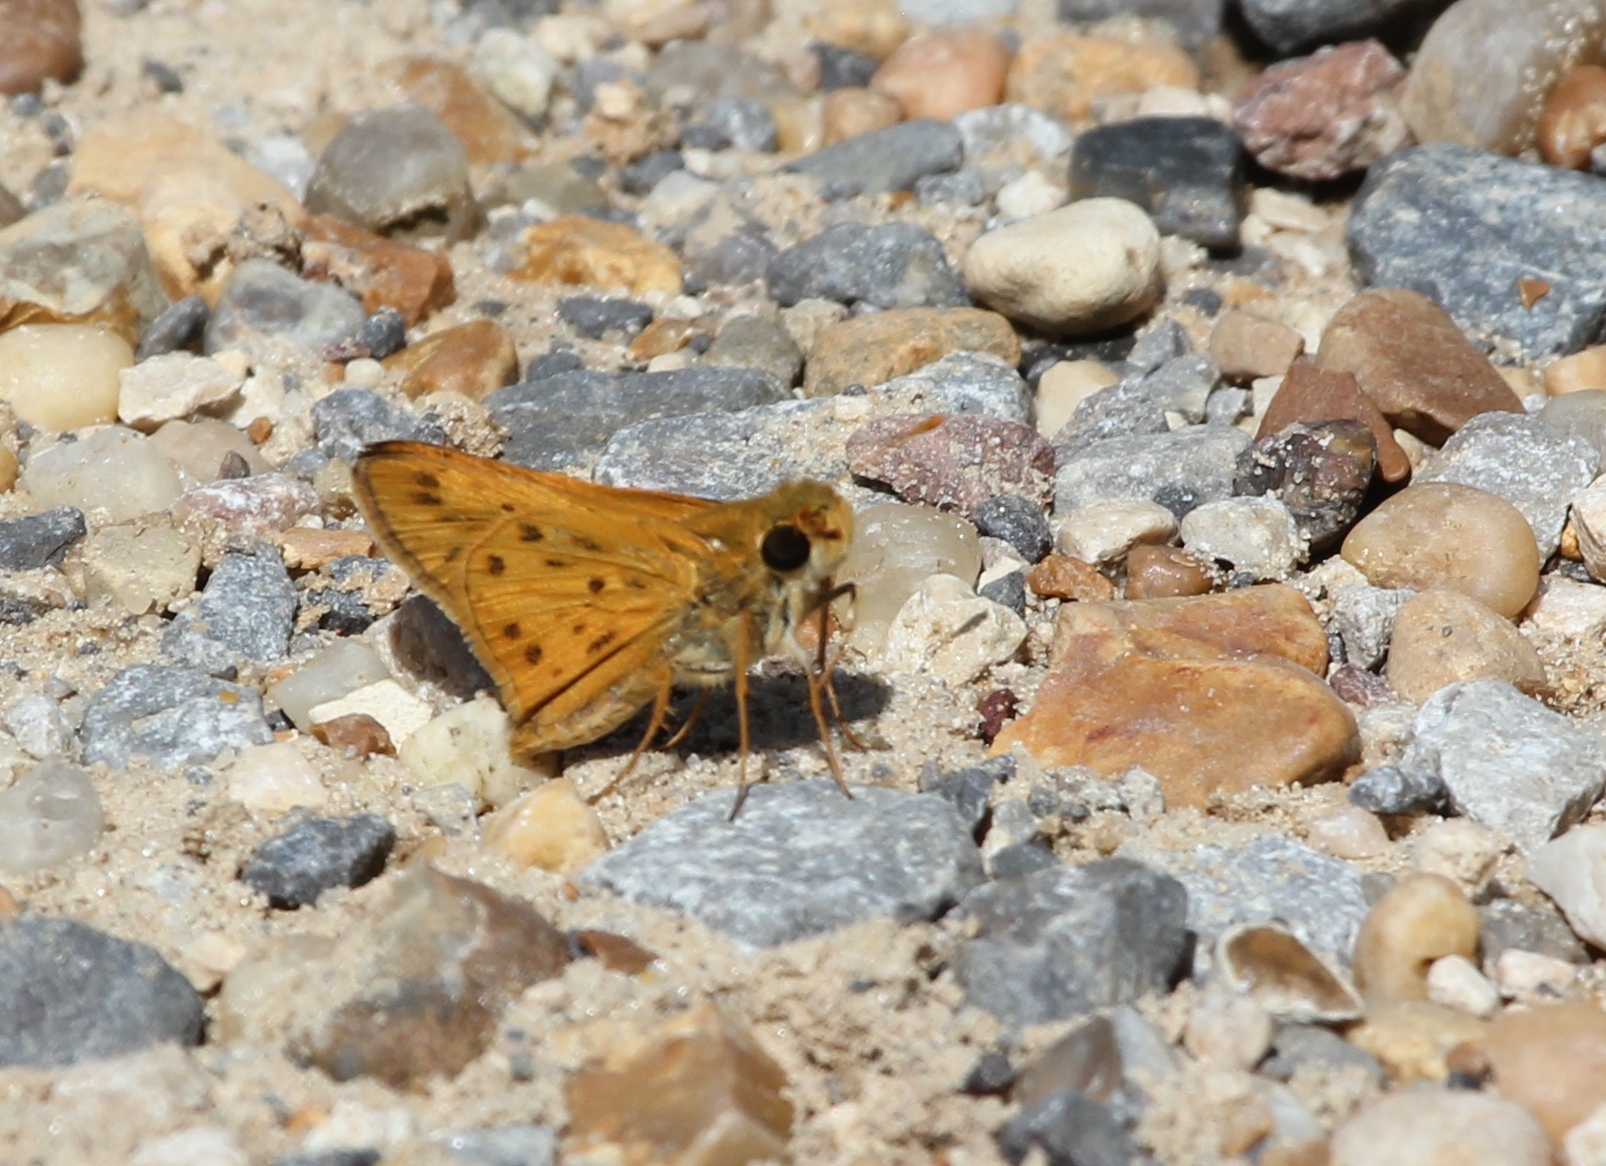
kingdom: Animalia
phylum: Arthropoda
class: Insecta
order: Lepidoptera
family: Hesperiidae
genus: Hylephila
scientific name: Hylephila phyleus
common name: Fiery skipper
